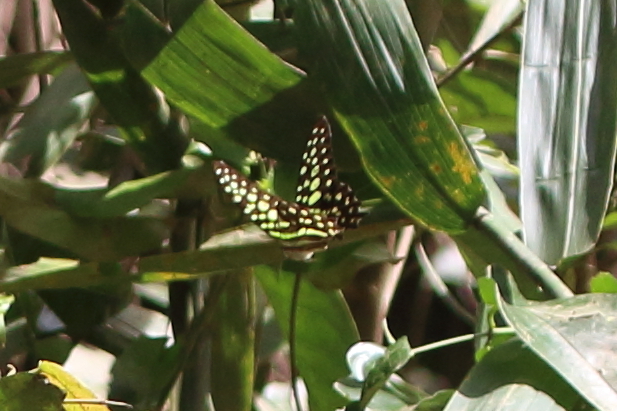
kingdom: Animalia
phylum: Arthropoda
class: Insecta
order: Lepidoptera
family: Papilionidae
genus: Graphium
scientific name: Graphium agamemnon
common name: Tailed jay
